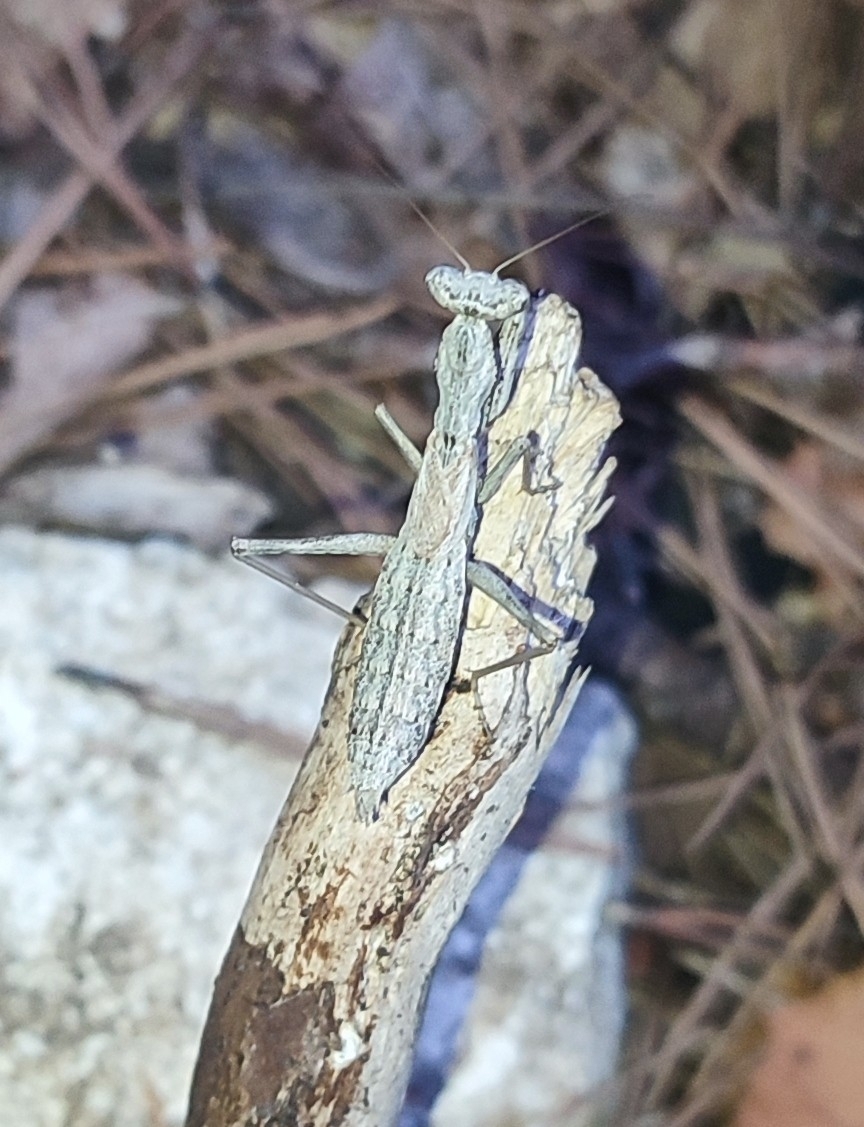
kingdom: Animalia
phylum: Arthropoda
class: Insecta
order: Mantodea
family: Amelidae
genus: Ameles
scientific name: Ameles decolor
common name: Dwarf mantis
